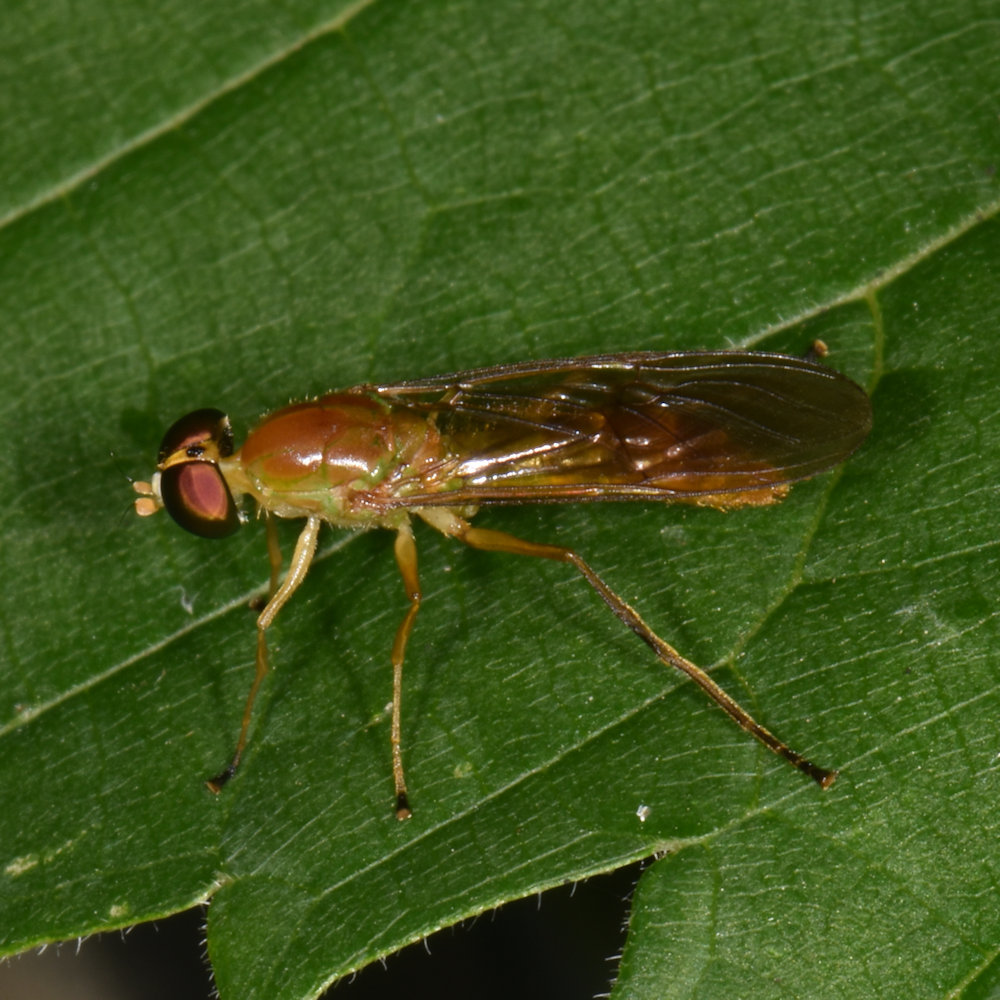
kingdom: Animalia
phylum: Arthropoda
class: Insecta
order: Diptera
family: Stratiomyidae
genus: Ptecticus
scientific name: Ptecticus trivittatus
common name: Compost fly
